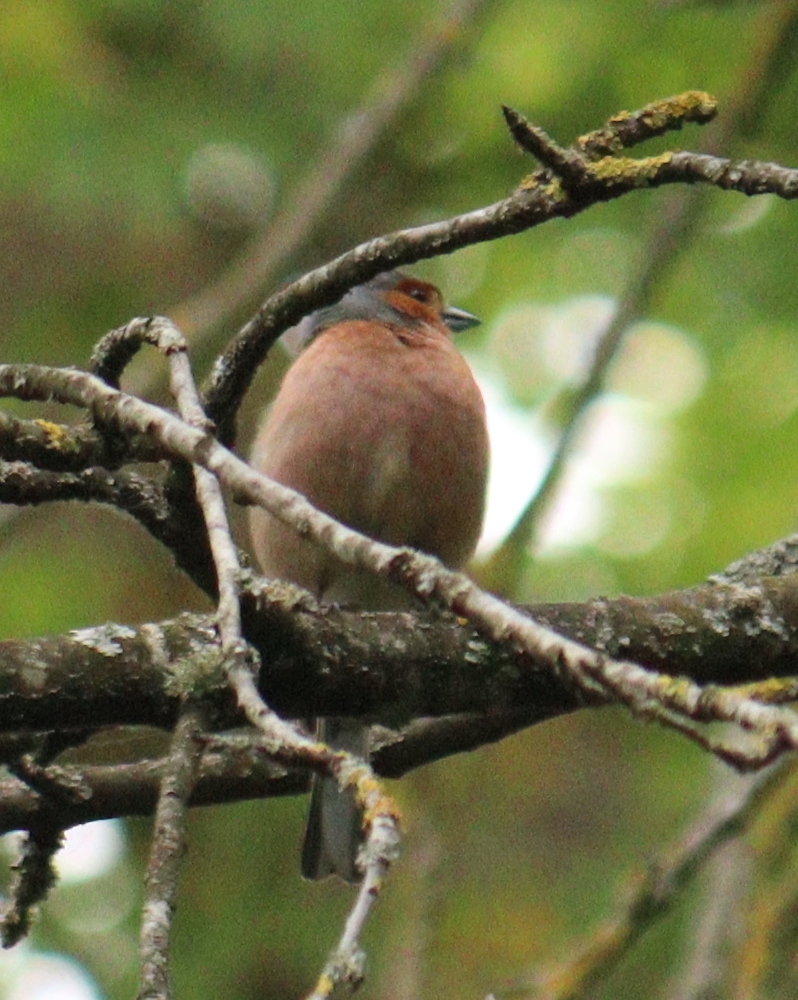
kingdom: Animalia
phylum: Chordata
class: Aves
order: Passeriformes
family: Fringillidae
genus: Fringilla
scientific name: Fringilla coelebs
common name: Common chaffinch
